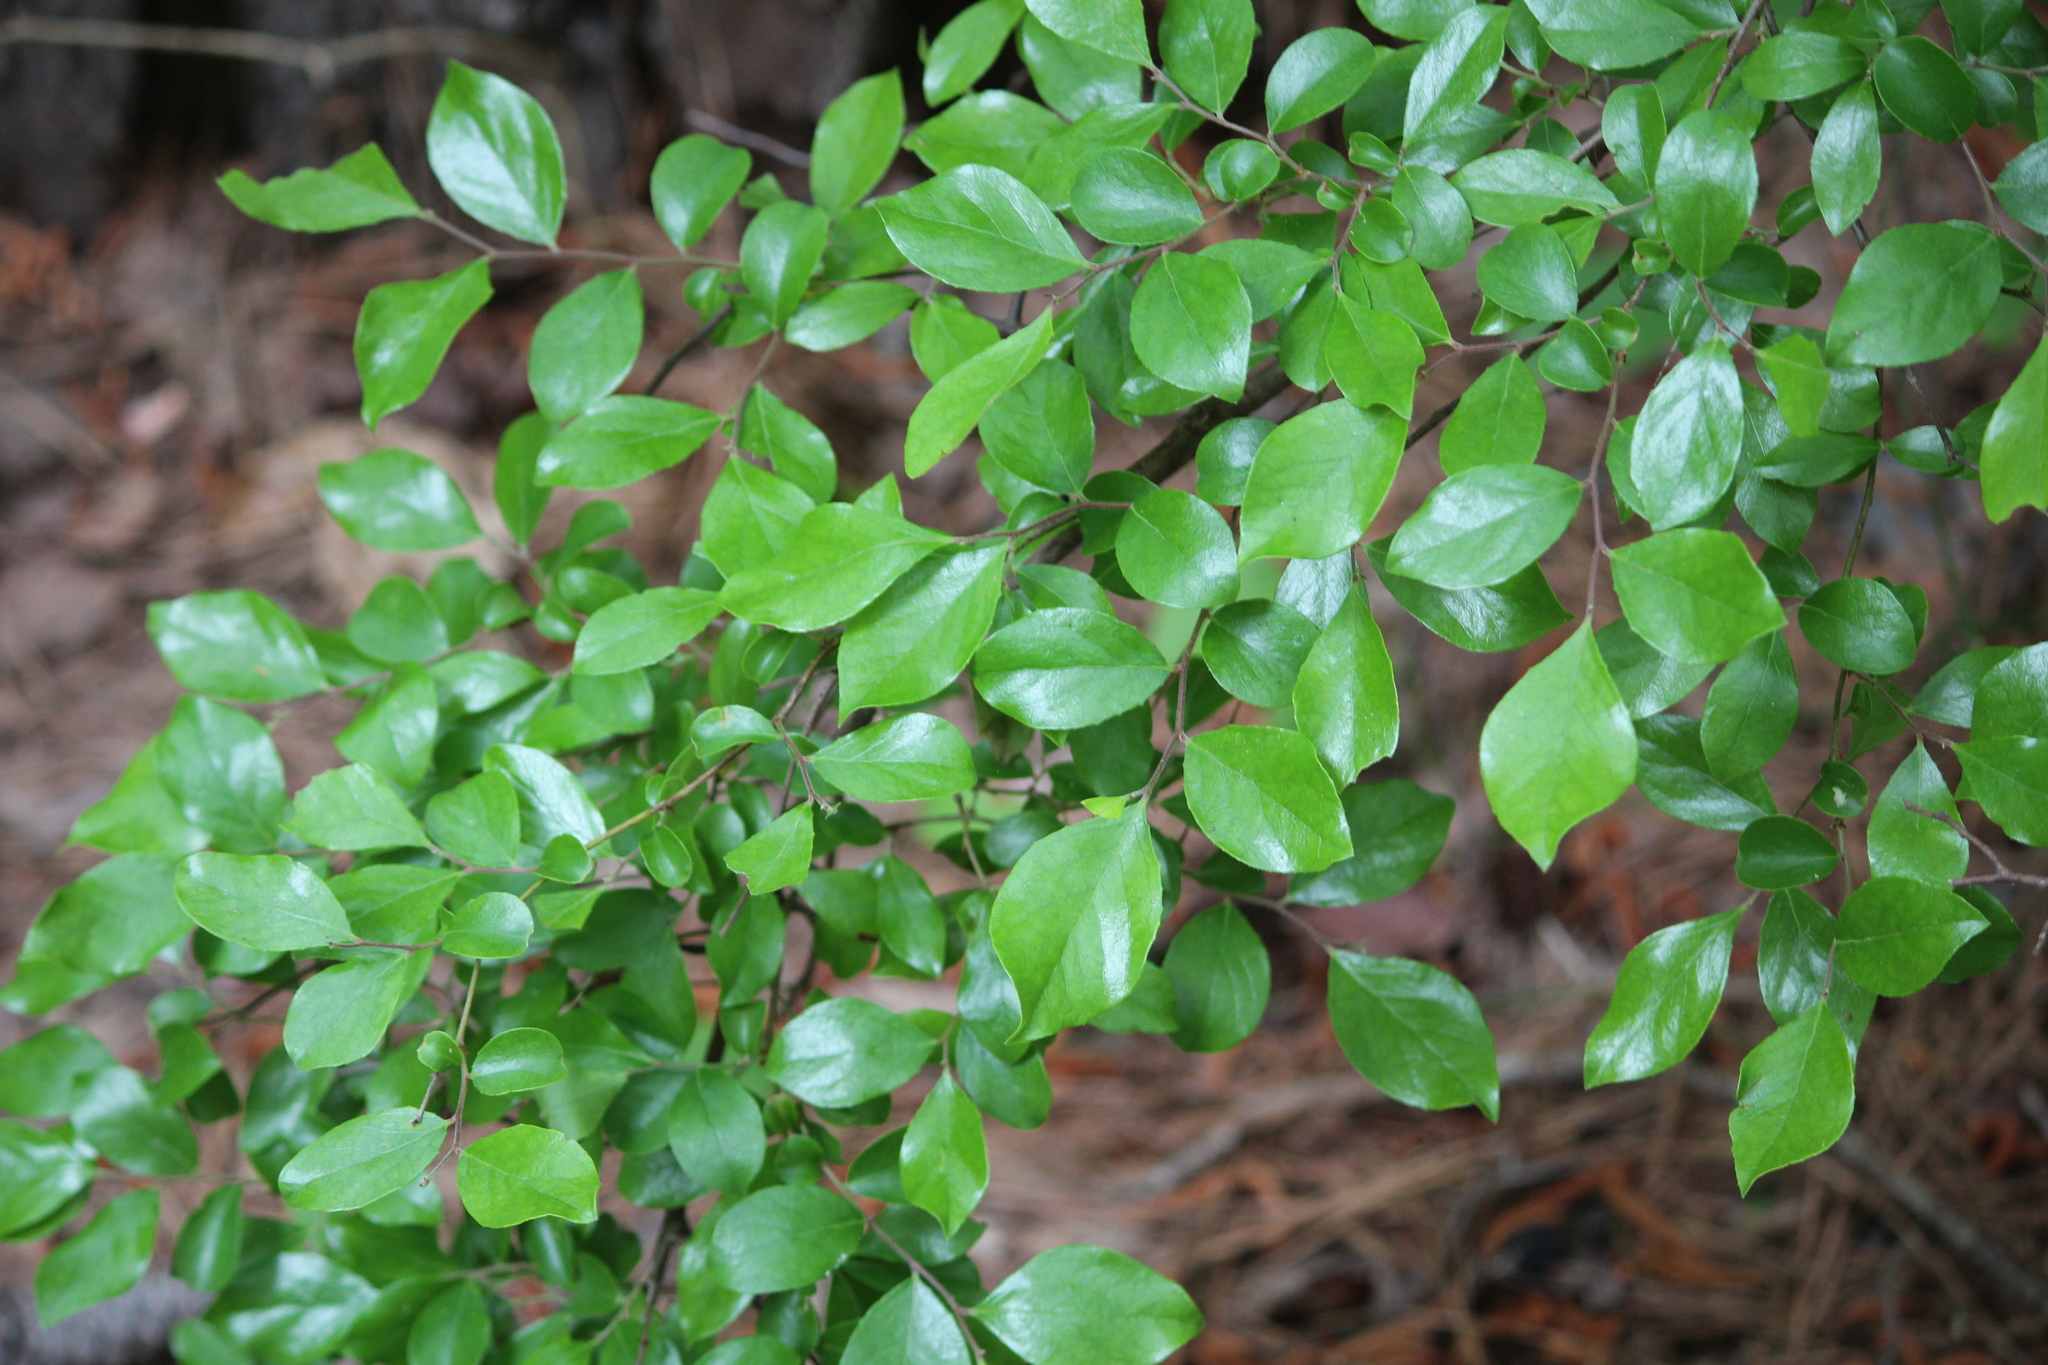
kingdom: Plantae
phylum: Tracheophyta
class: Magnoliopsida
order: Ericales
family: Ericaceae
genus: Vaccinium
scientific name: Vaccinium arboreum
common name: Farkleberry
